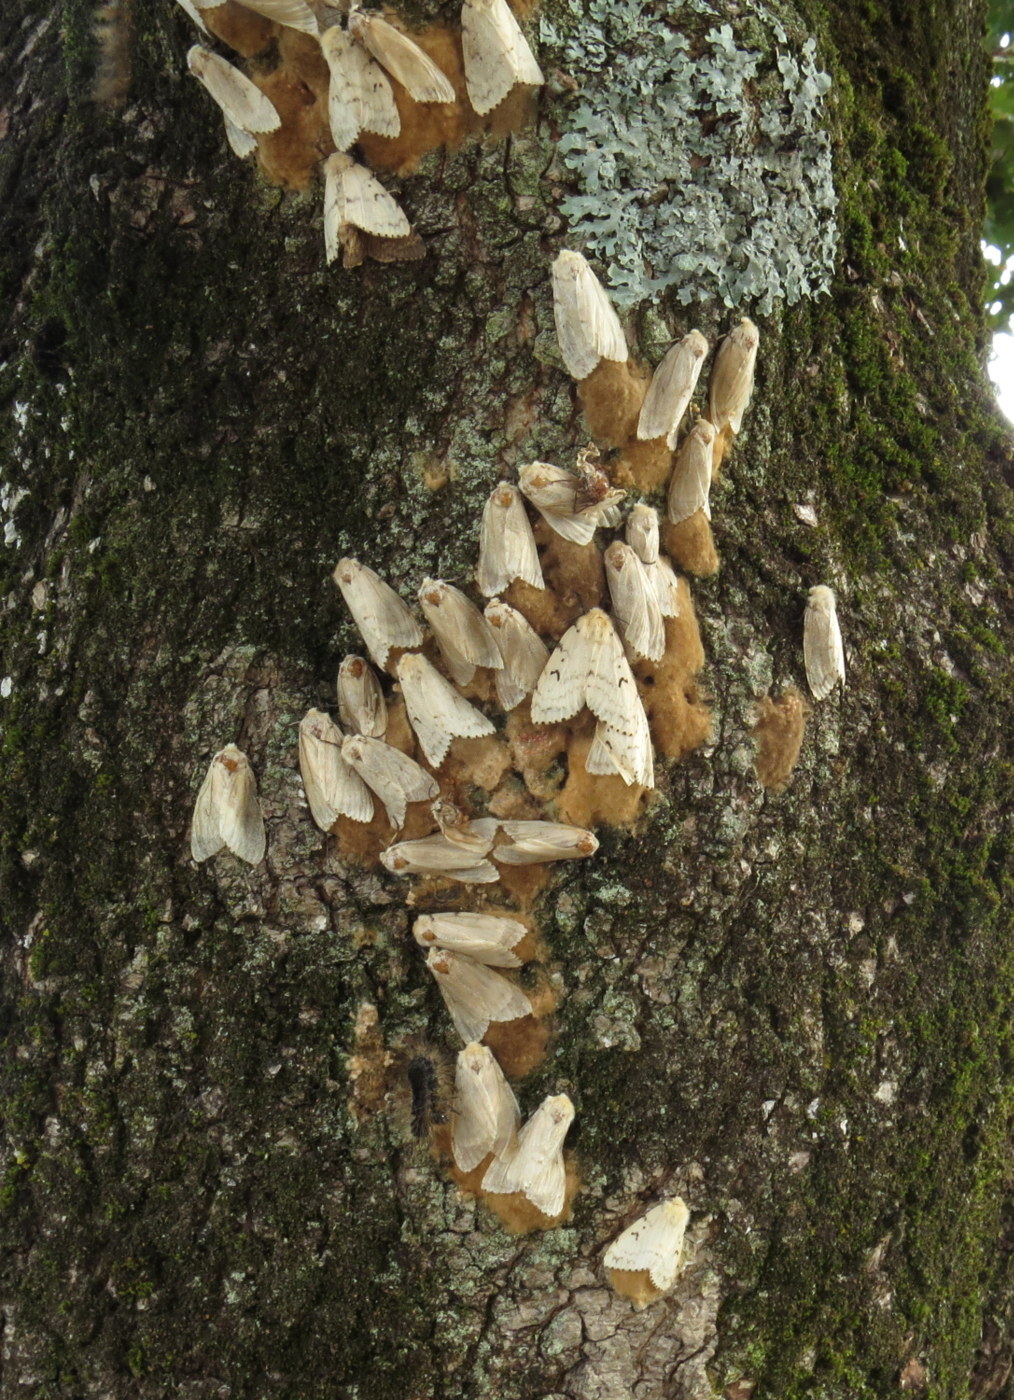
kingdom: Animalia
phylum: Arthropoda
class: Insecta
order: Lepidoptera
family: Erebidae
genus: Lymantria
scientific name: Lymantria dispar
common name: Gypsy moth
